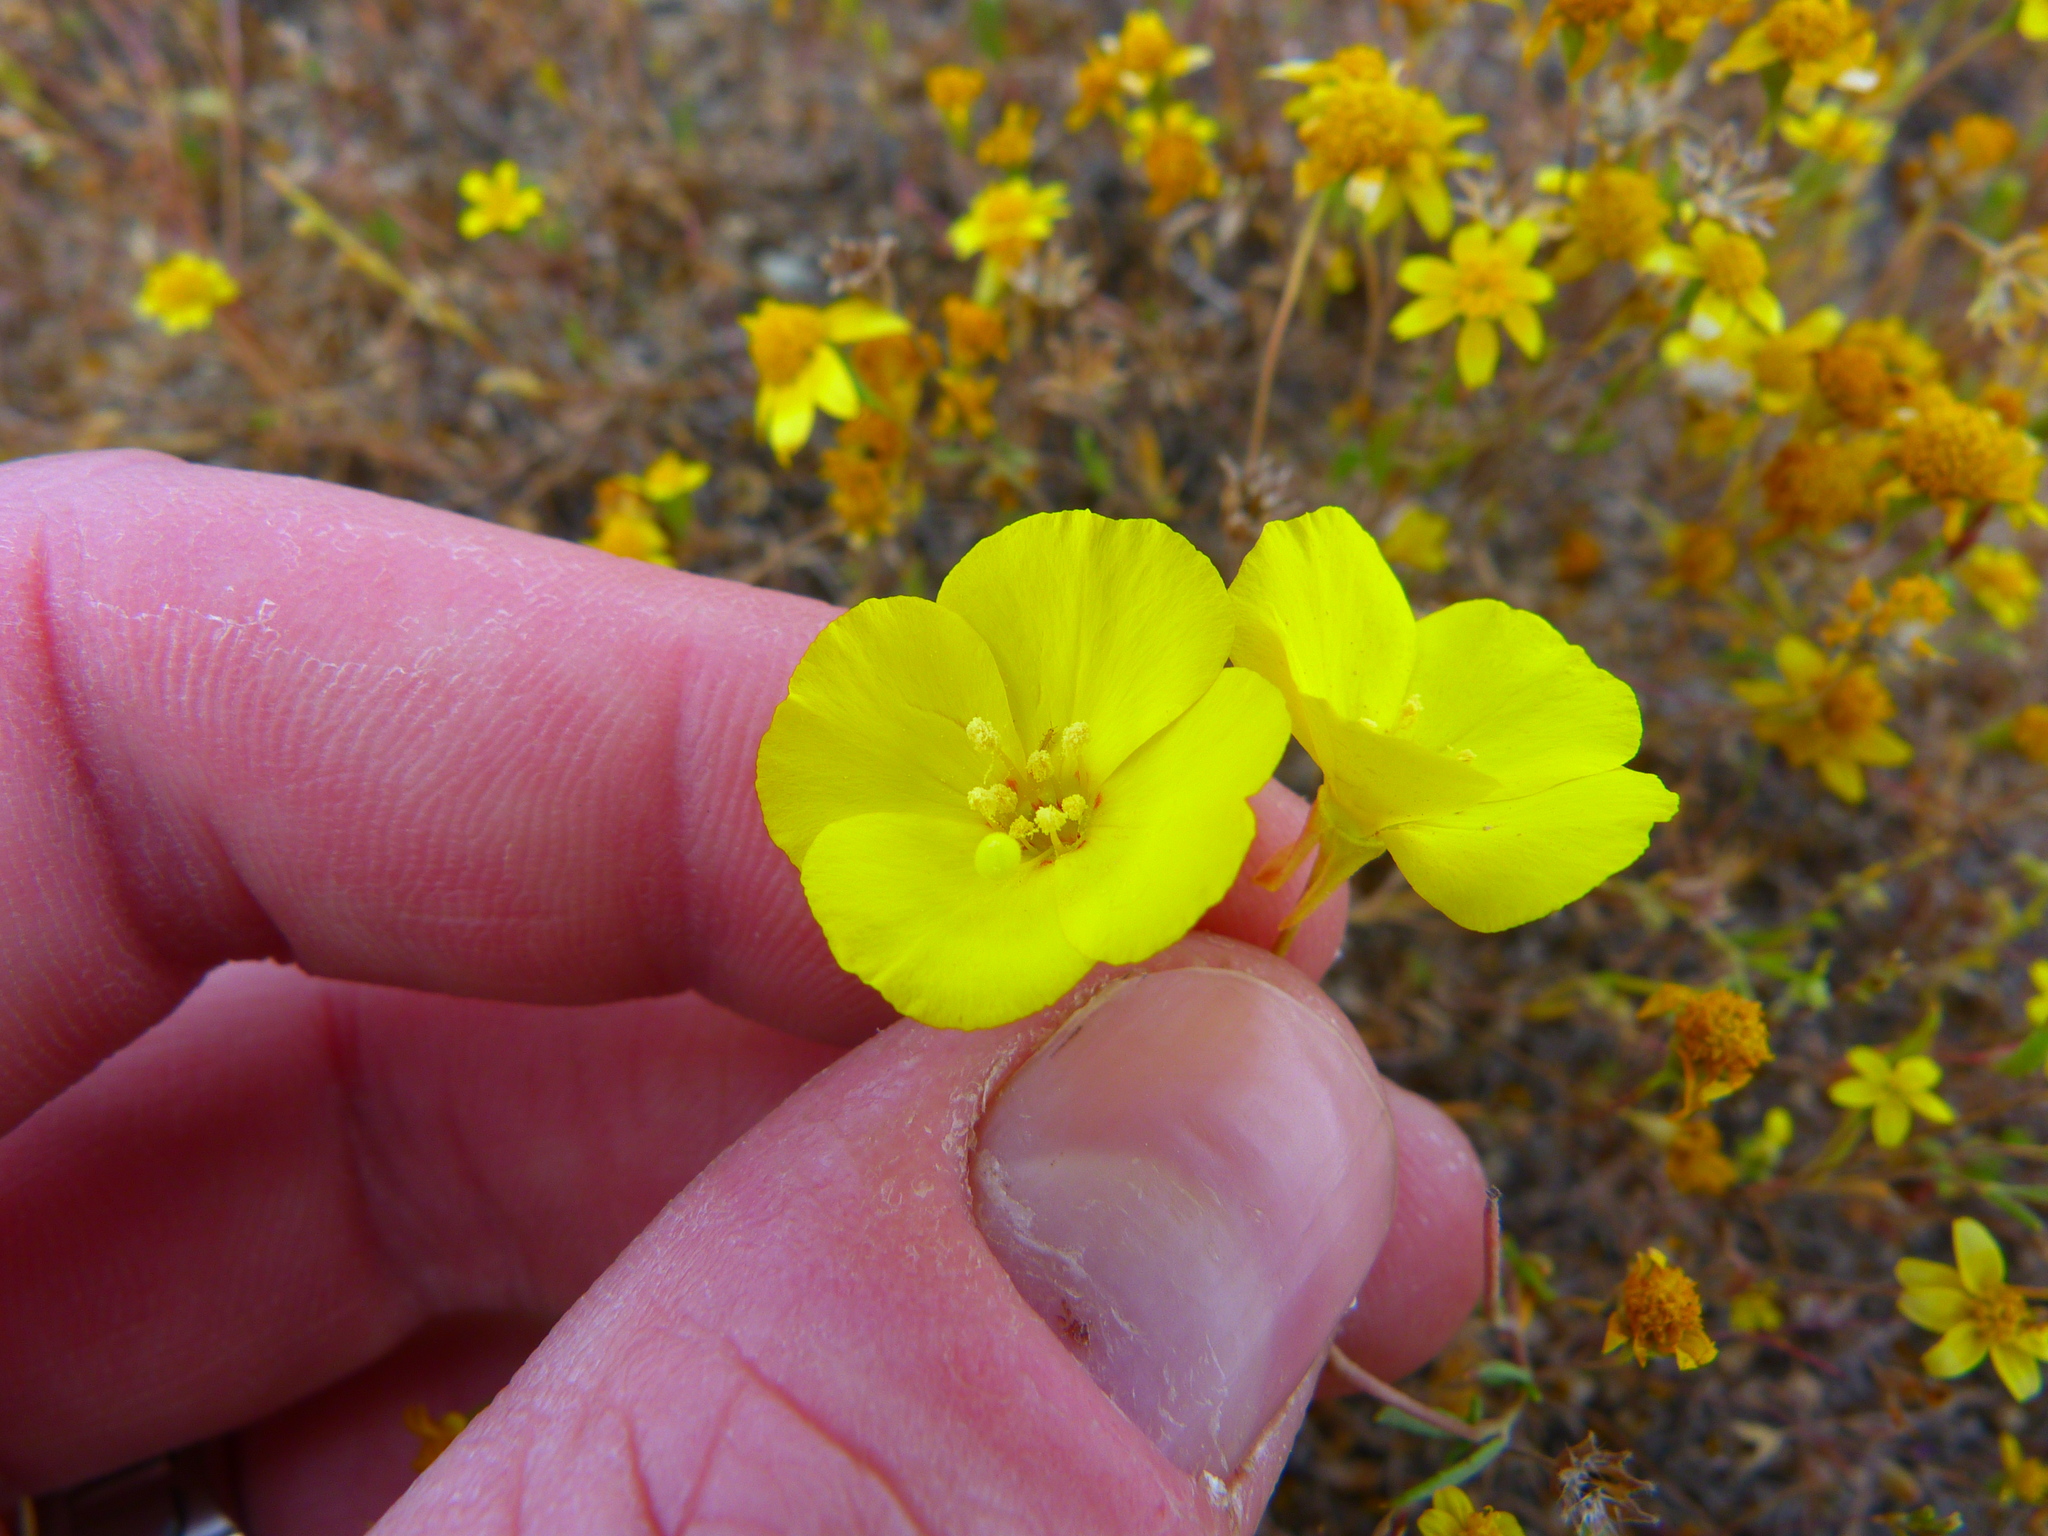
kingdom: Plantae
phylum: Tracheophyta
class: Magnoliopsida
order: Myrtales
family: Onagraceae
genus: Camissonia
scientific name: Camissonia campestris
